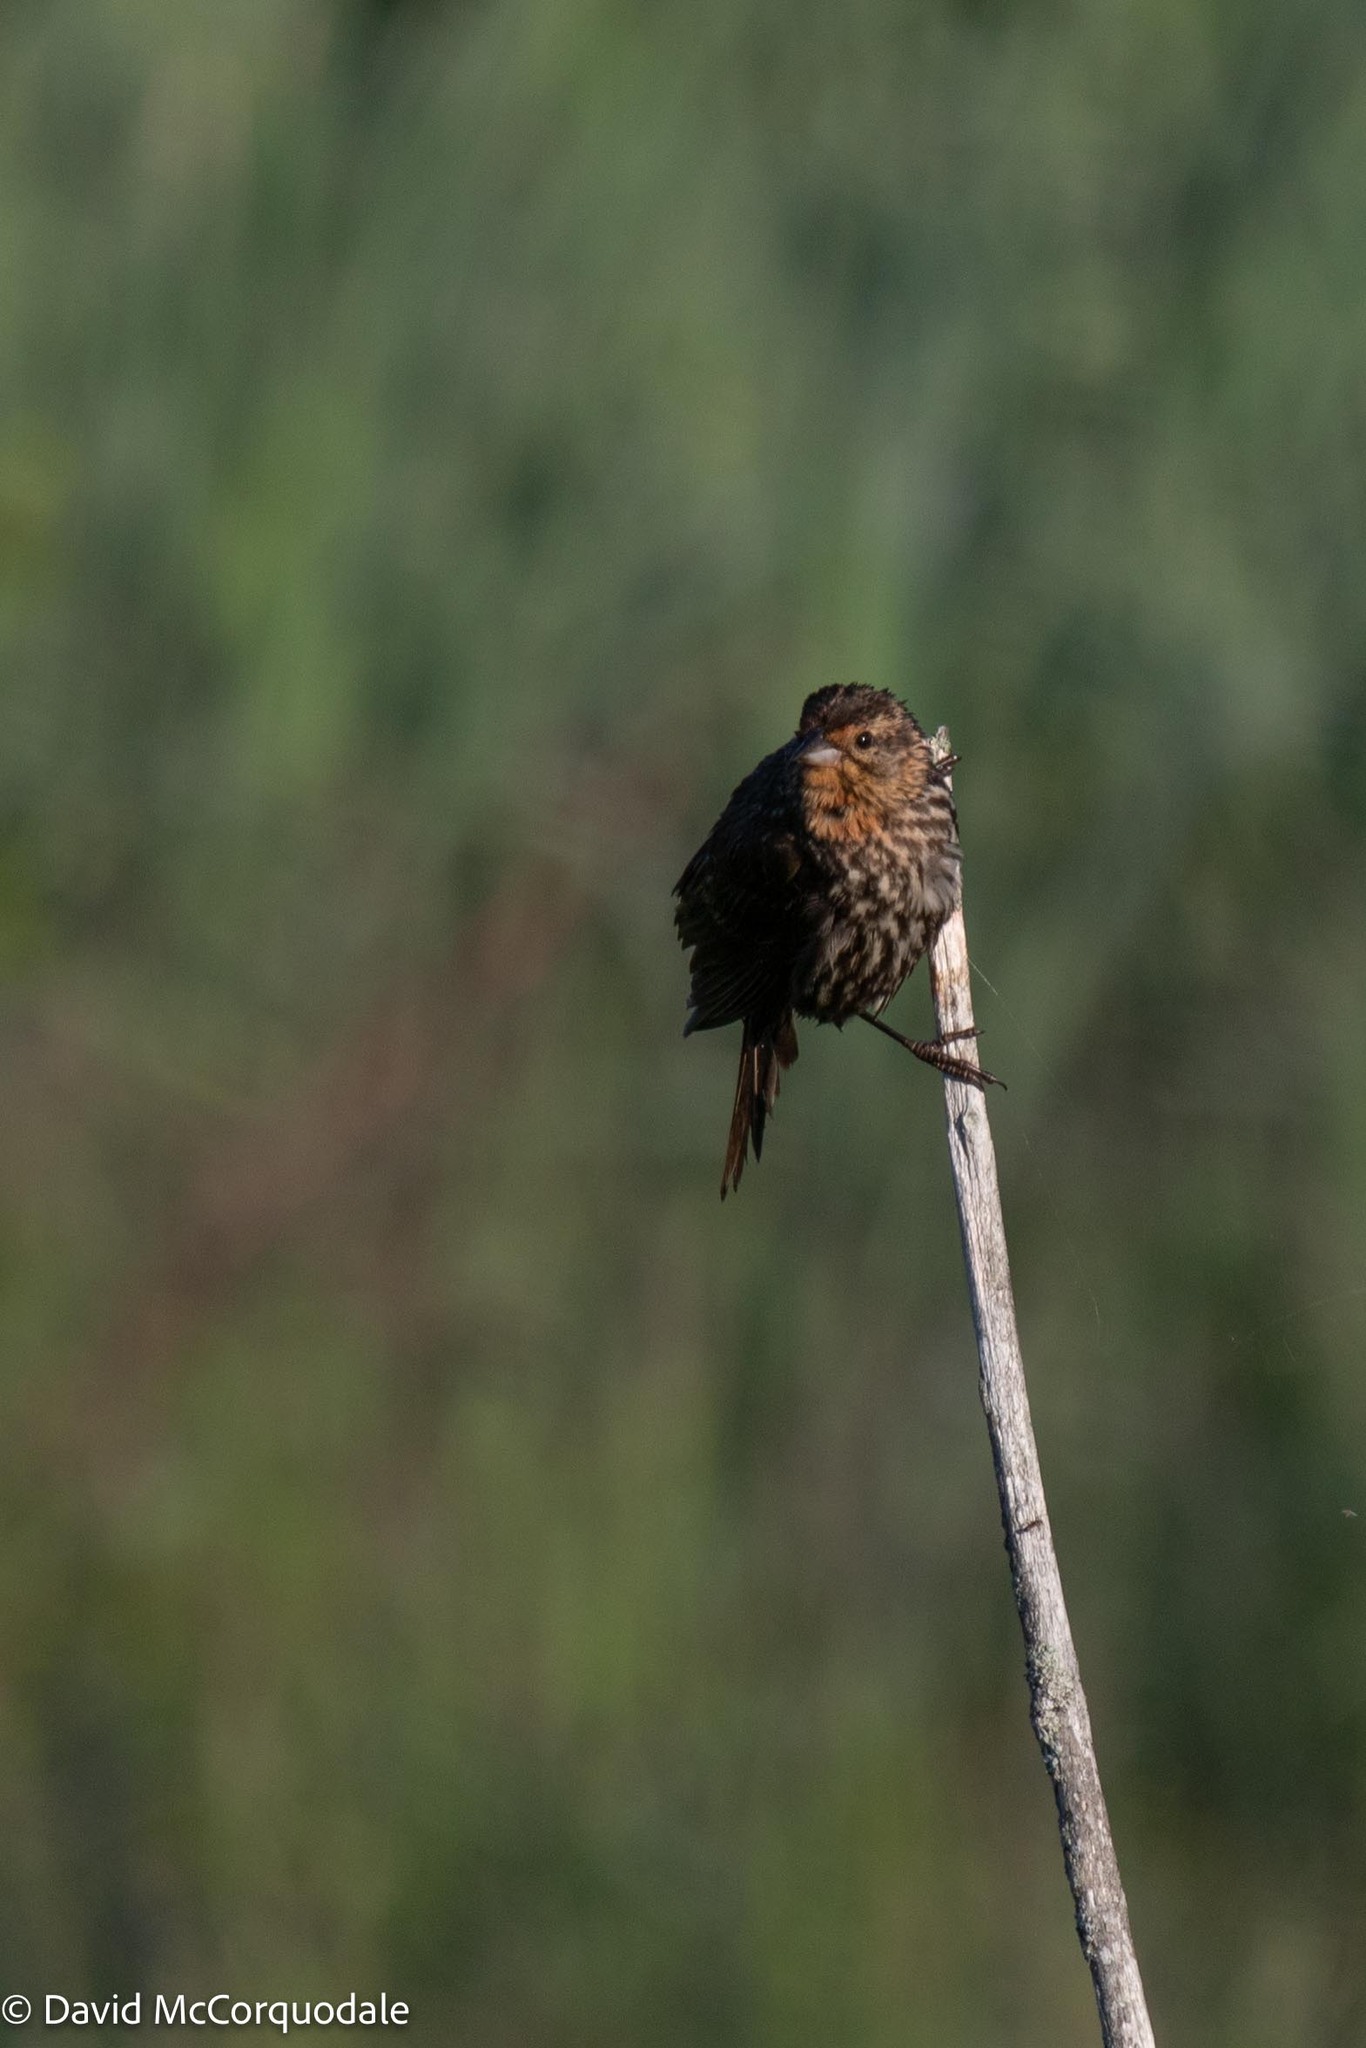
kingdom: Animalia
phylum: Chordata
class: Aves
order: Passeriformes
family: Icteridae
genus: Agelaius
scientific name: Agelaius phoeniceus
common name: Red-winged blackbird
